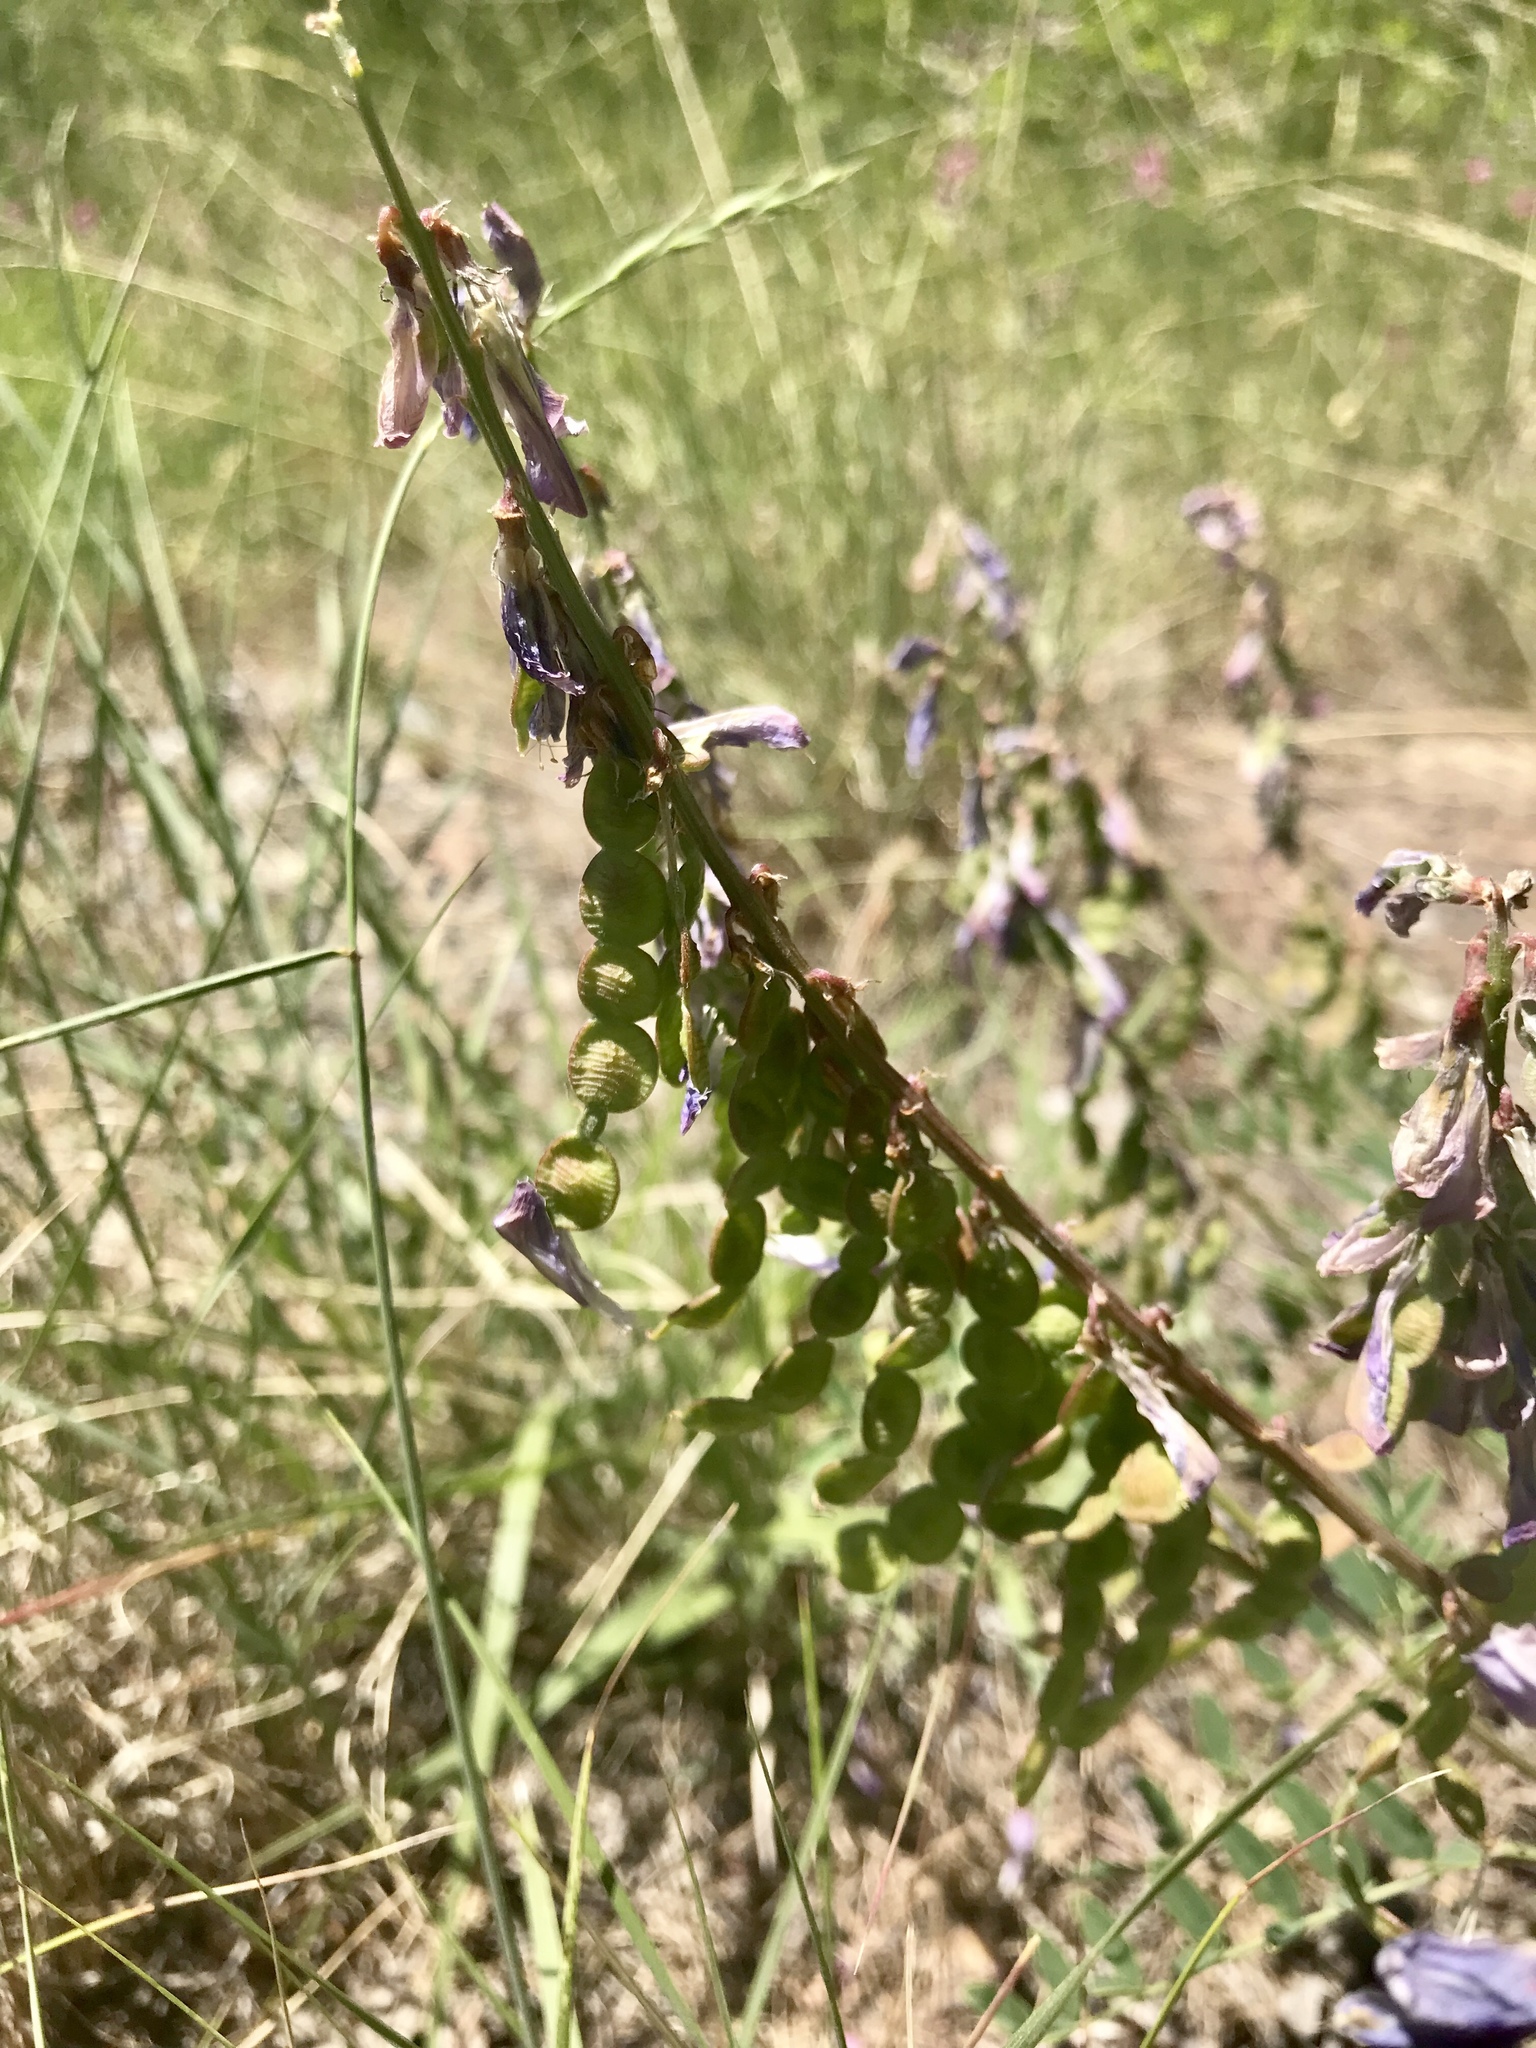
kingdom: Plantae
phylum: Tracheophyta
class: Magnoliopsida
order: Fabales
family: Fabaceae
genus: Hedysarum
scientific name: Hedysarum boreale
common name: Northern sweet-vetch
